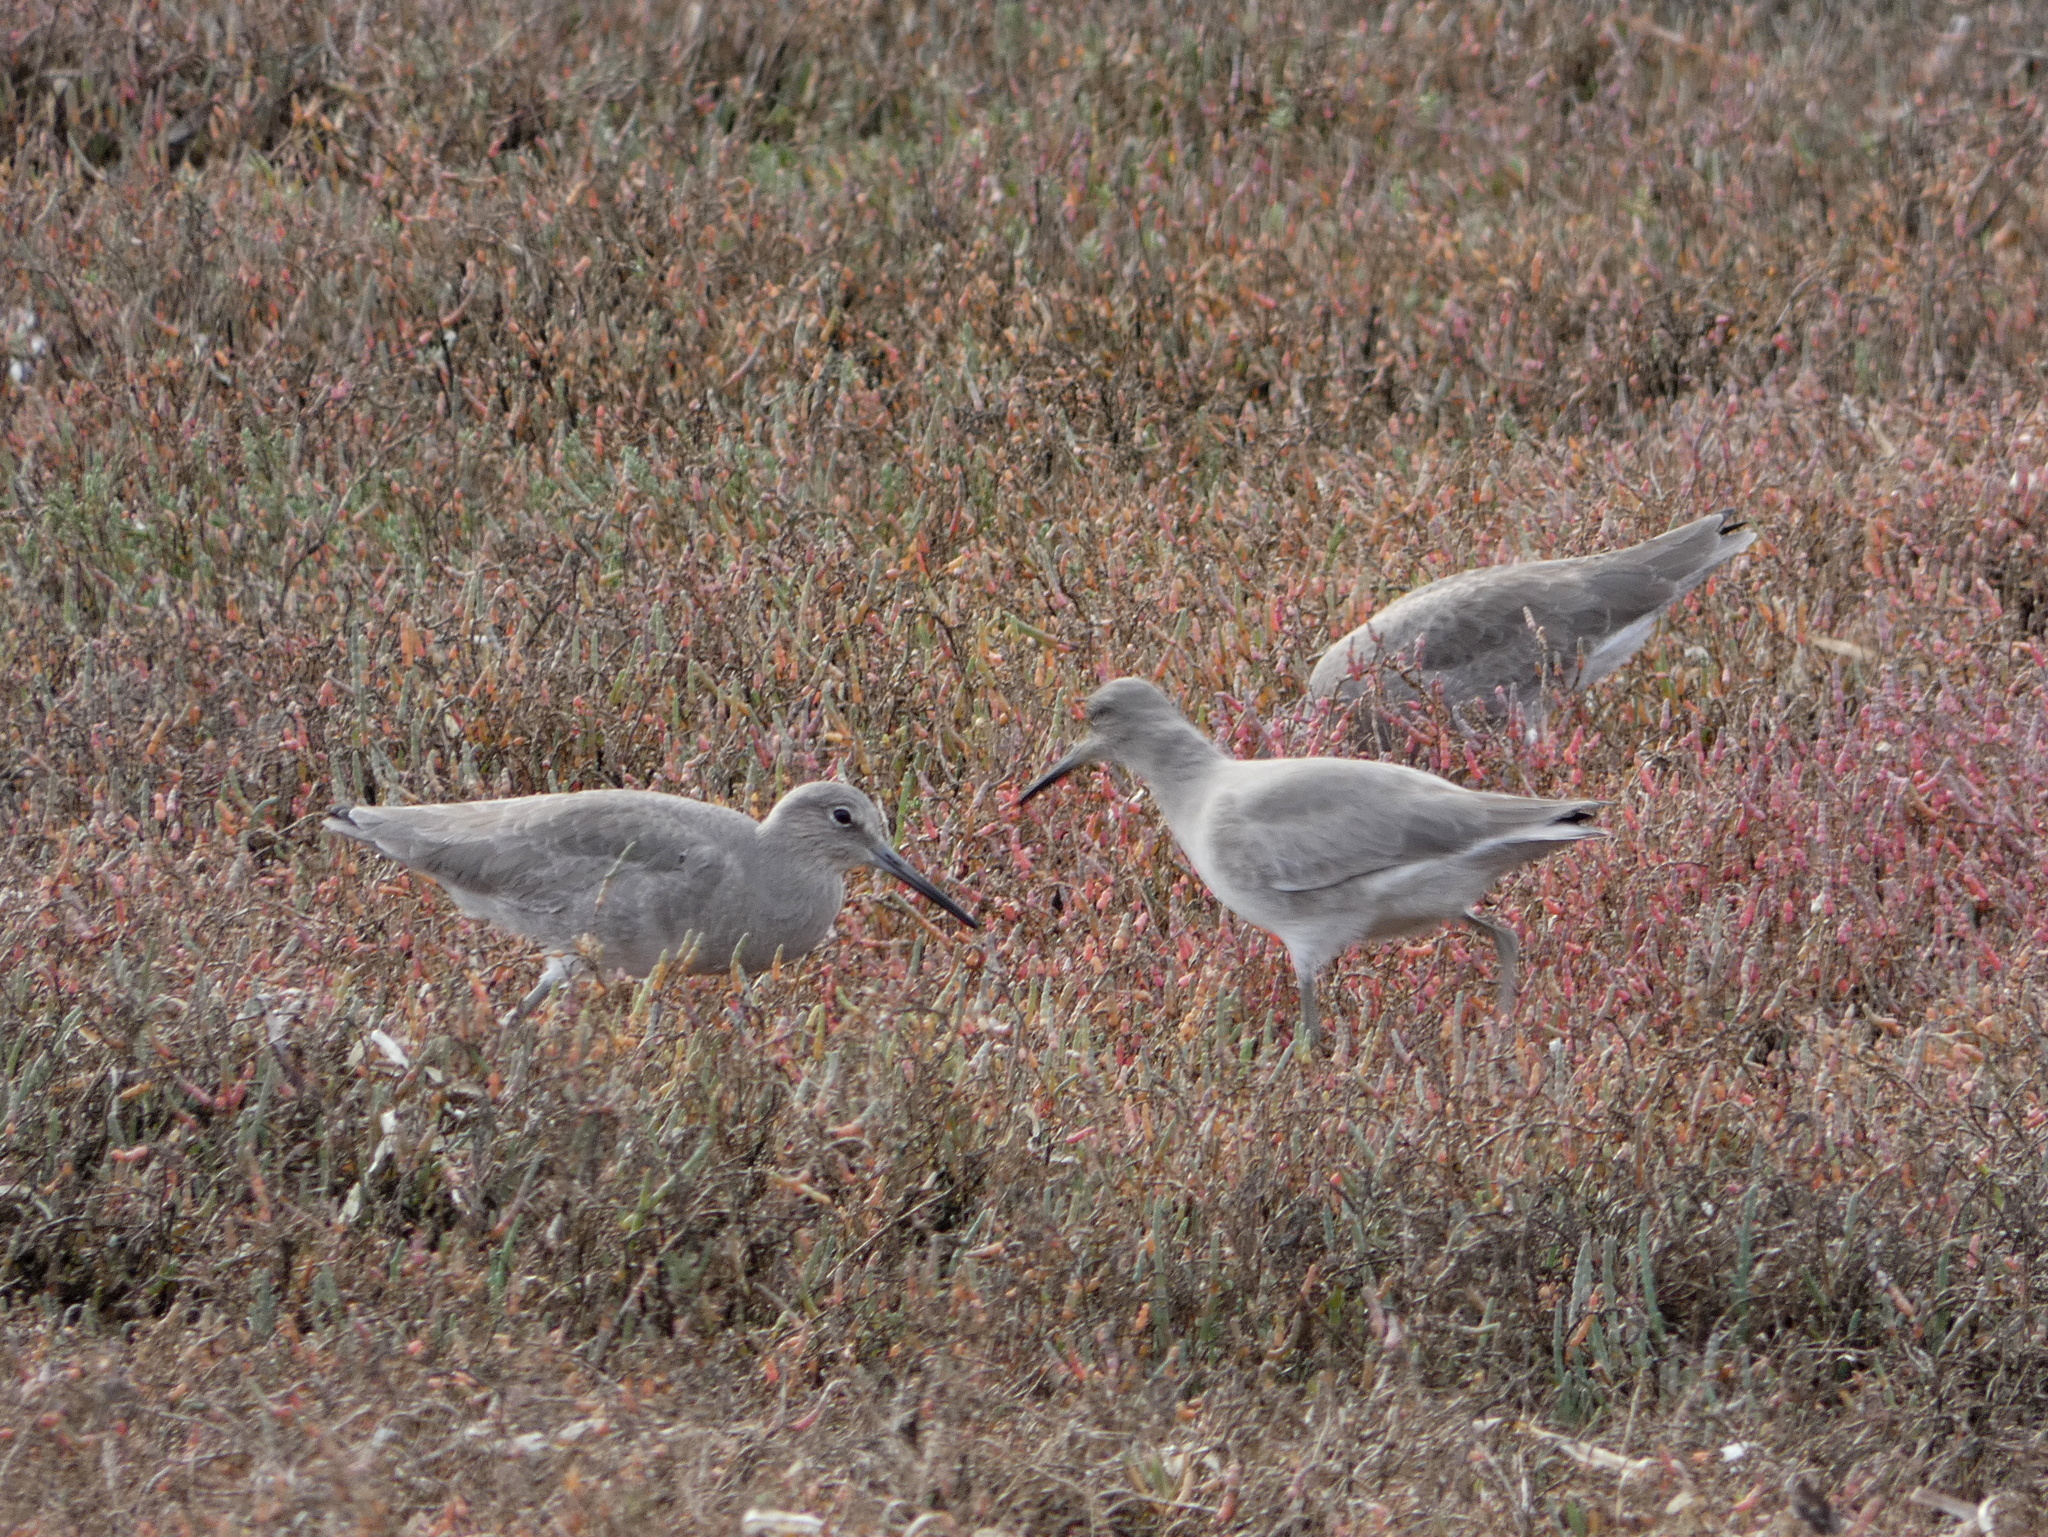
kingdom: Animalia
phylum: Chordata
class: Aves
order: Charadriiformes
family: Scolopacidae
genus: Tringa
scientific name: Tringa semipalmata
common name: Willet
